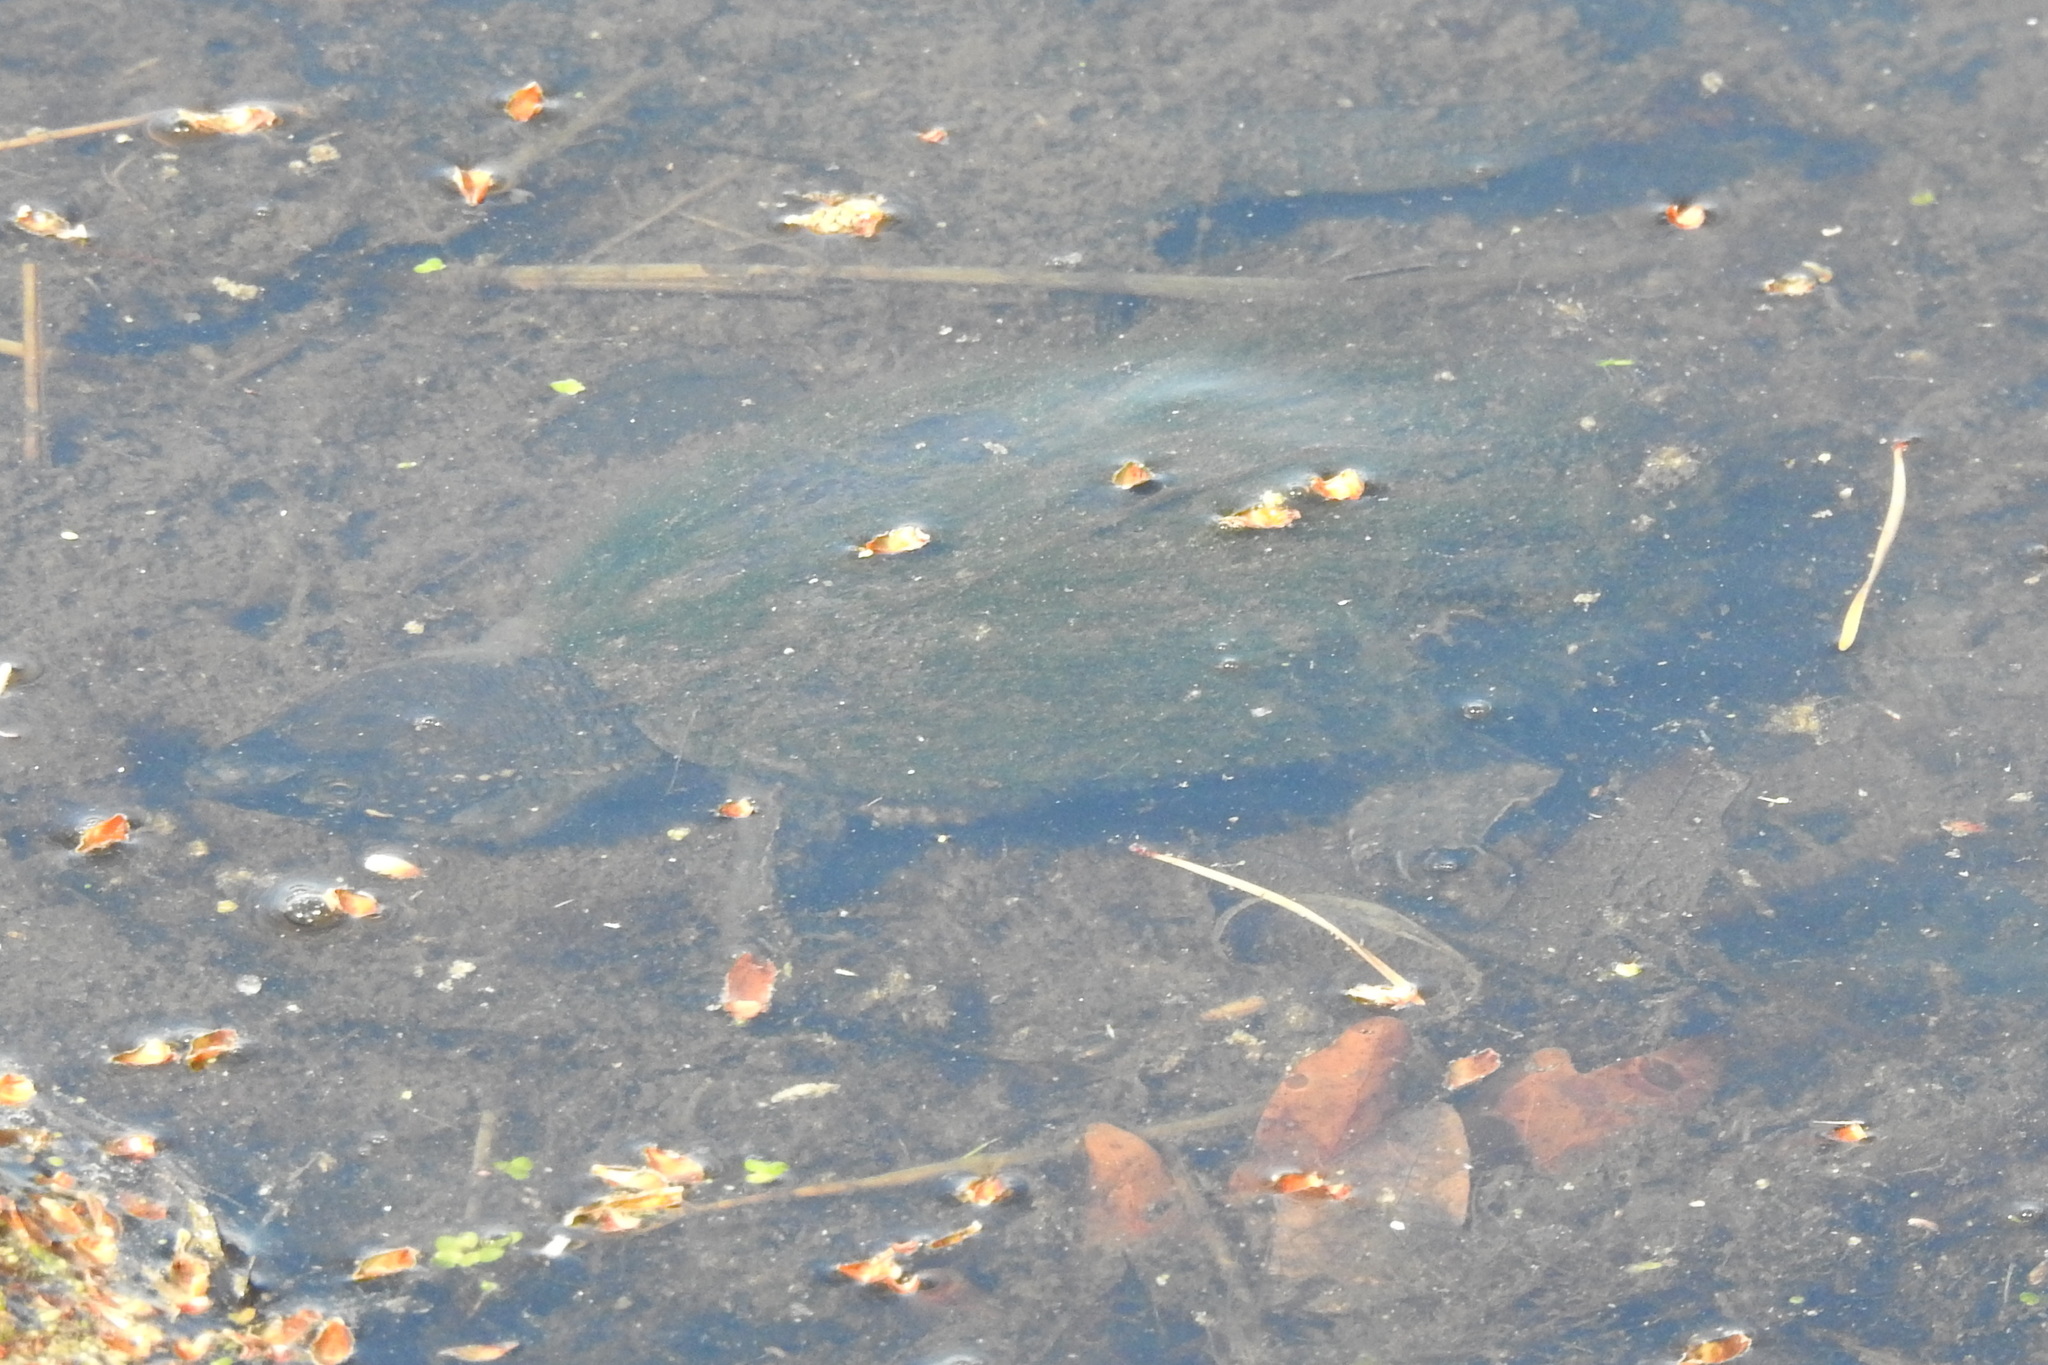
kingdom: Animalia
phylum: Chordata
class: Testudines
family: Kinosternidae
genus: Sternotherus
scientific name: Sternotherus odoratus
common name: Common musk turtle
